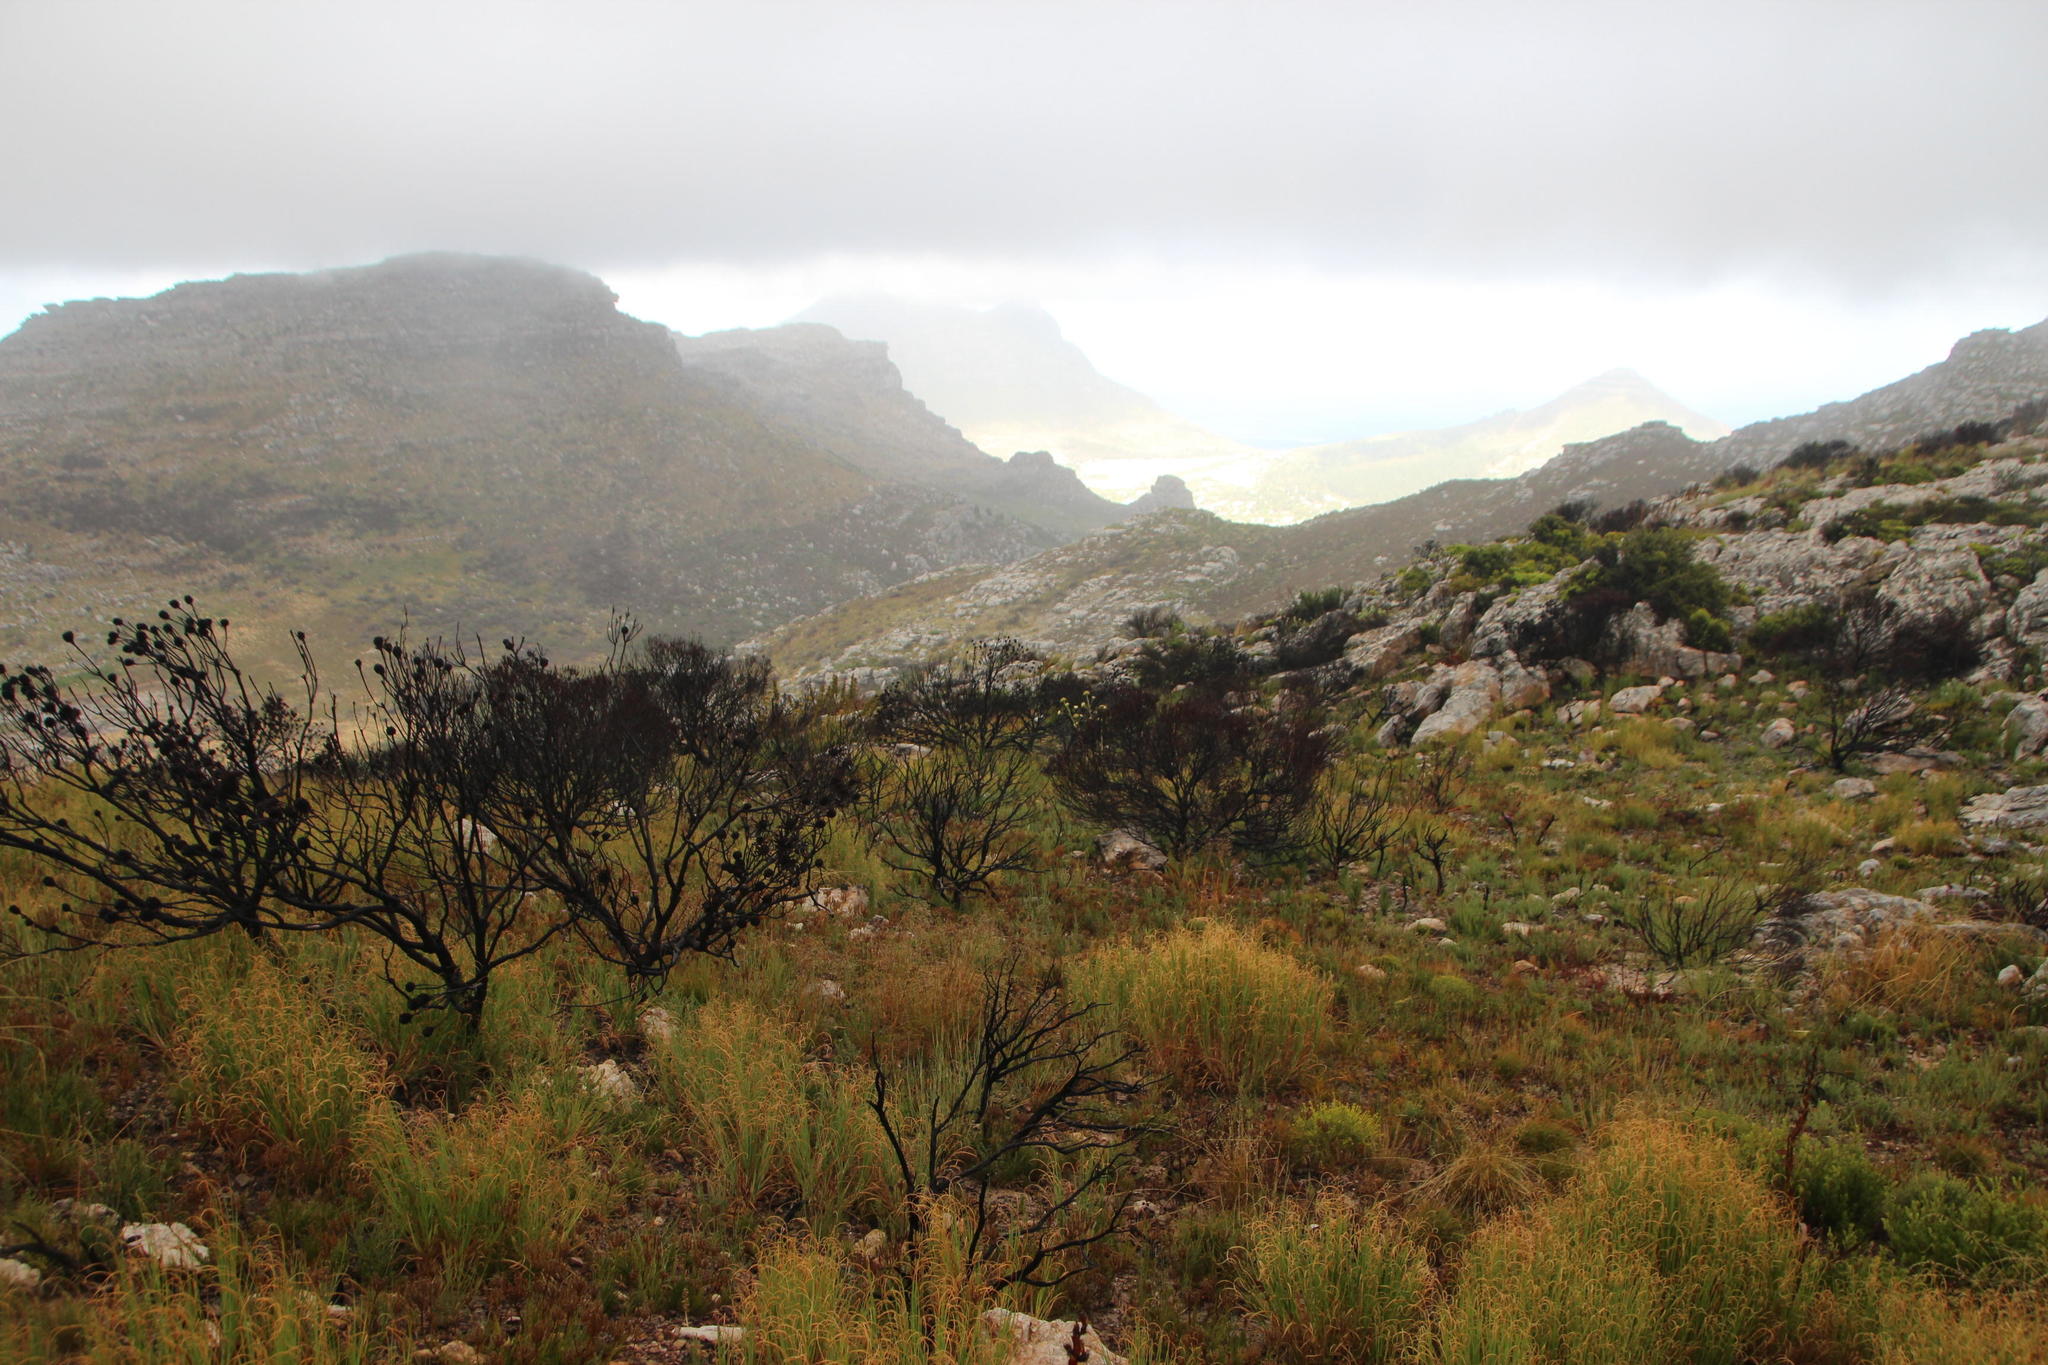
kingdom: Plantae
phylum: Tracheophyta
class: Magnoliopsida
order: Proteales
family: Proteaceae
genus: Leucadendron
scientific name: Leucadendron xanthoconus
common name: Sickle-leaf conebush
